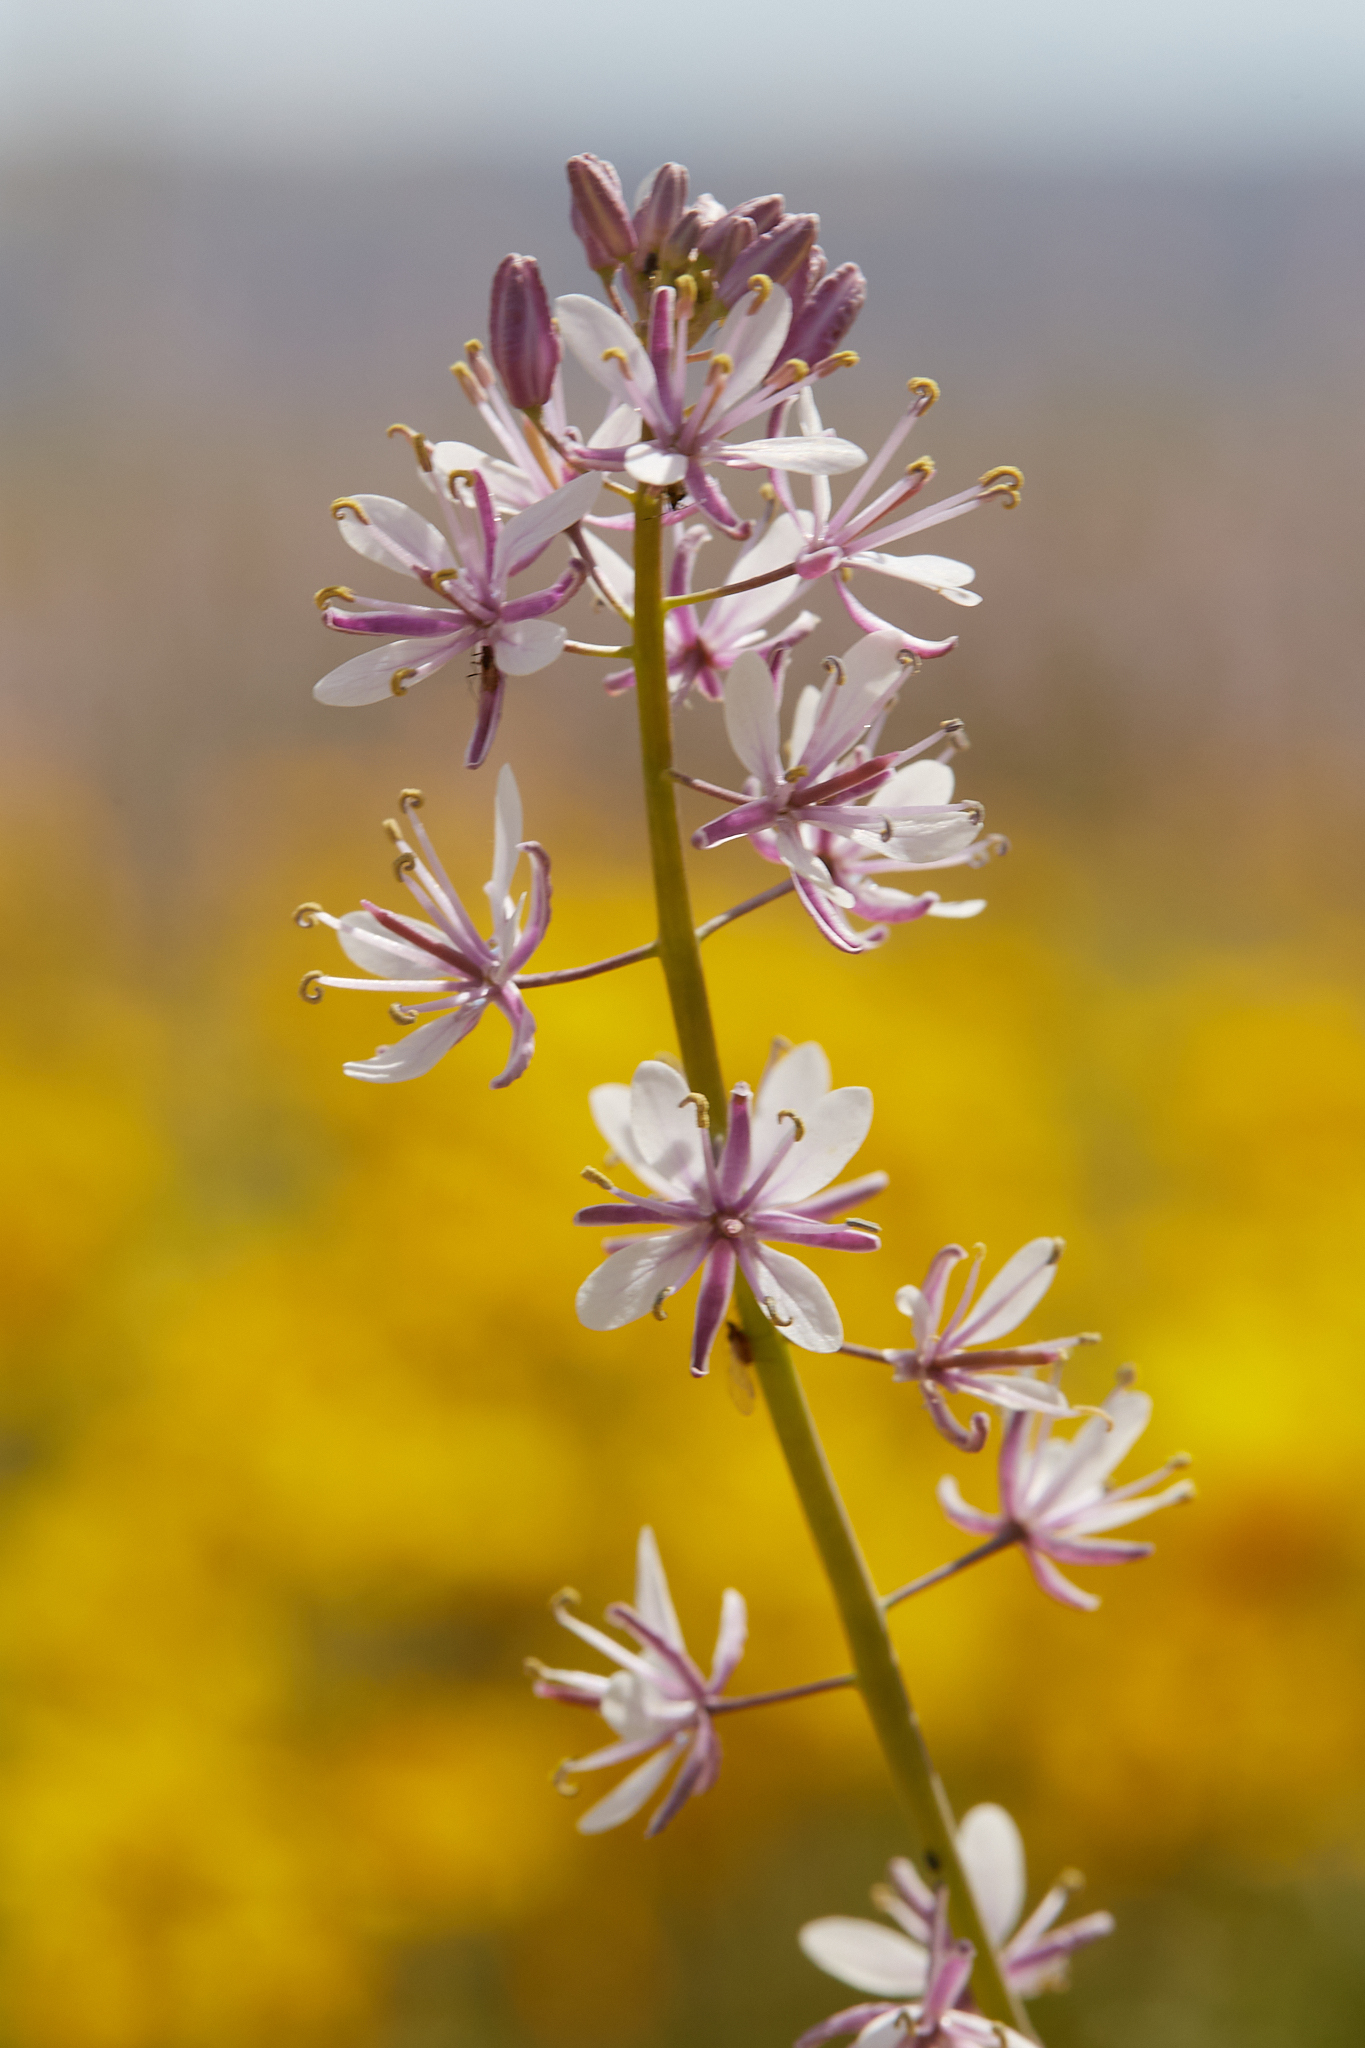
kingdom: Plantae
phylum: Tracheophyta
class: Magnoliopsida
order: Brassicales
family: Brassicaceae
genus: Streptanthus
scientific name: Streptanthus anceps
